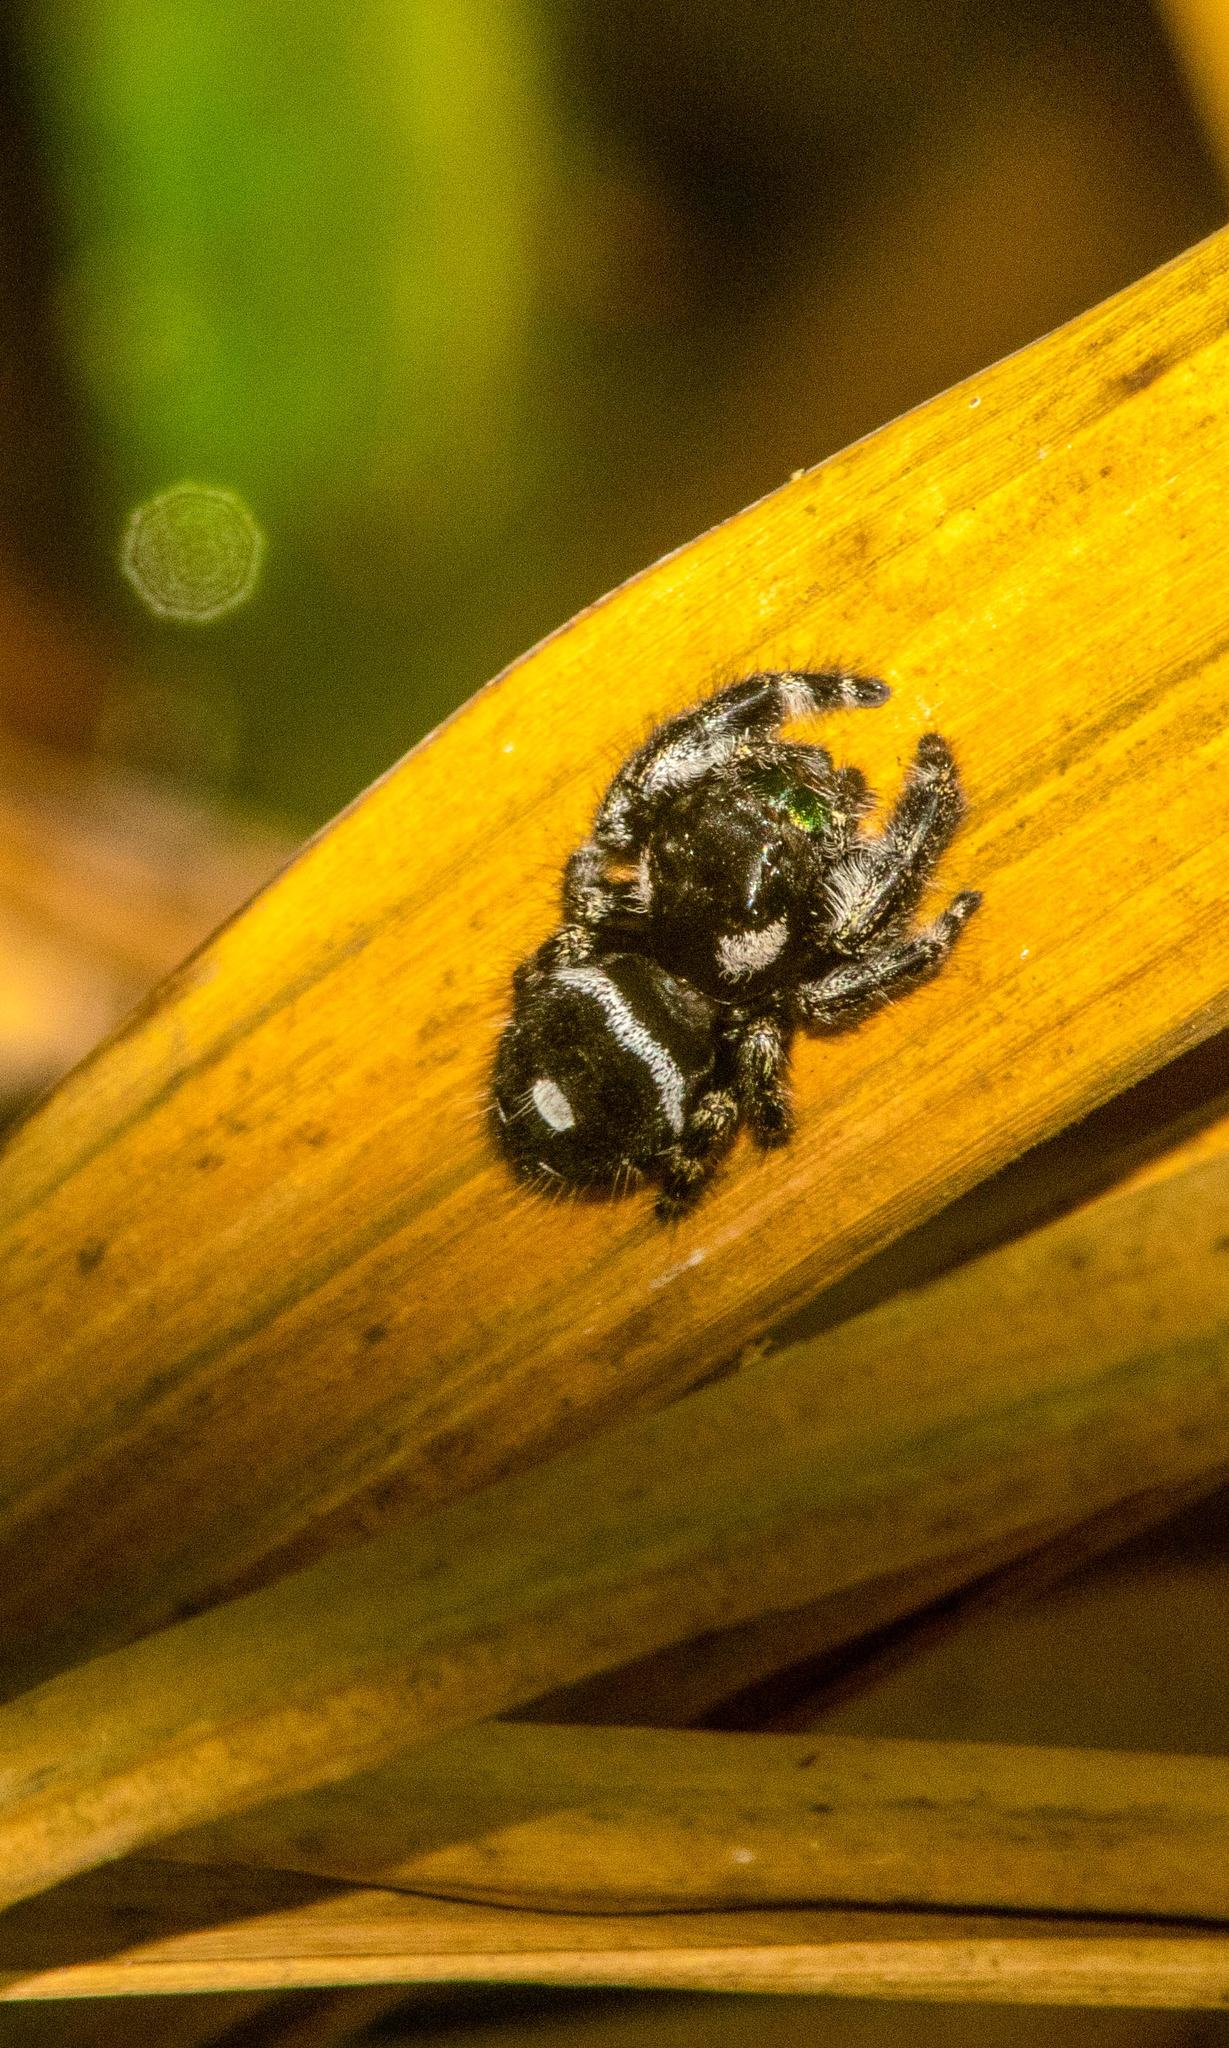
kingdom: Animalia
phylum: Arthropoda
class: Arachnida
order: Araneae
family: Salticidae
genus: Phidippus
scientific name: Phidippus audax
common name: Bold jumper
